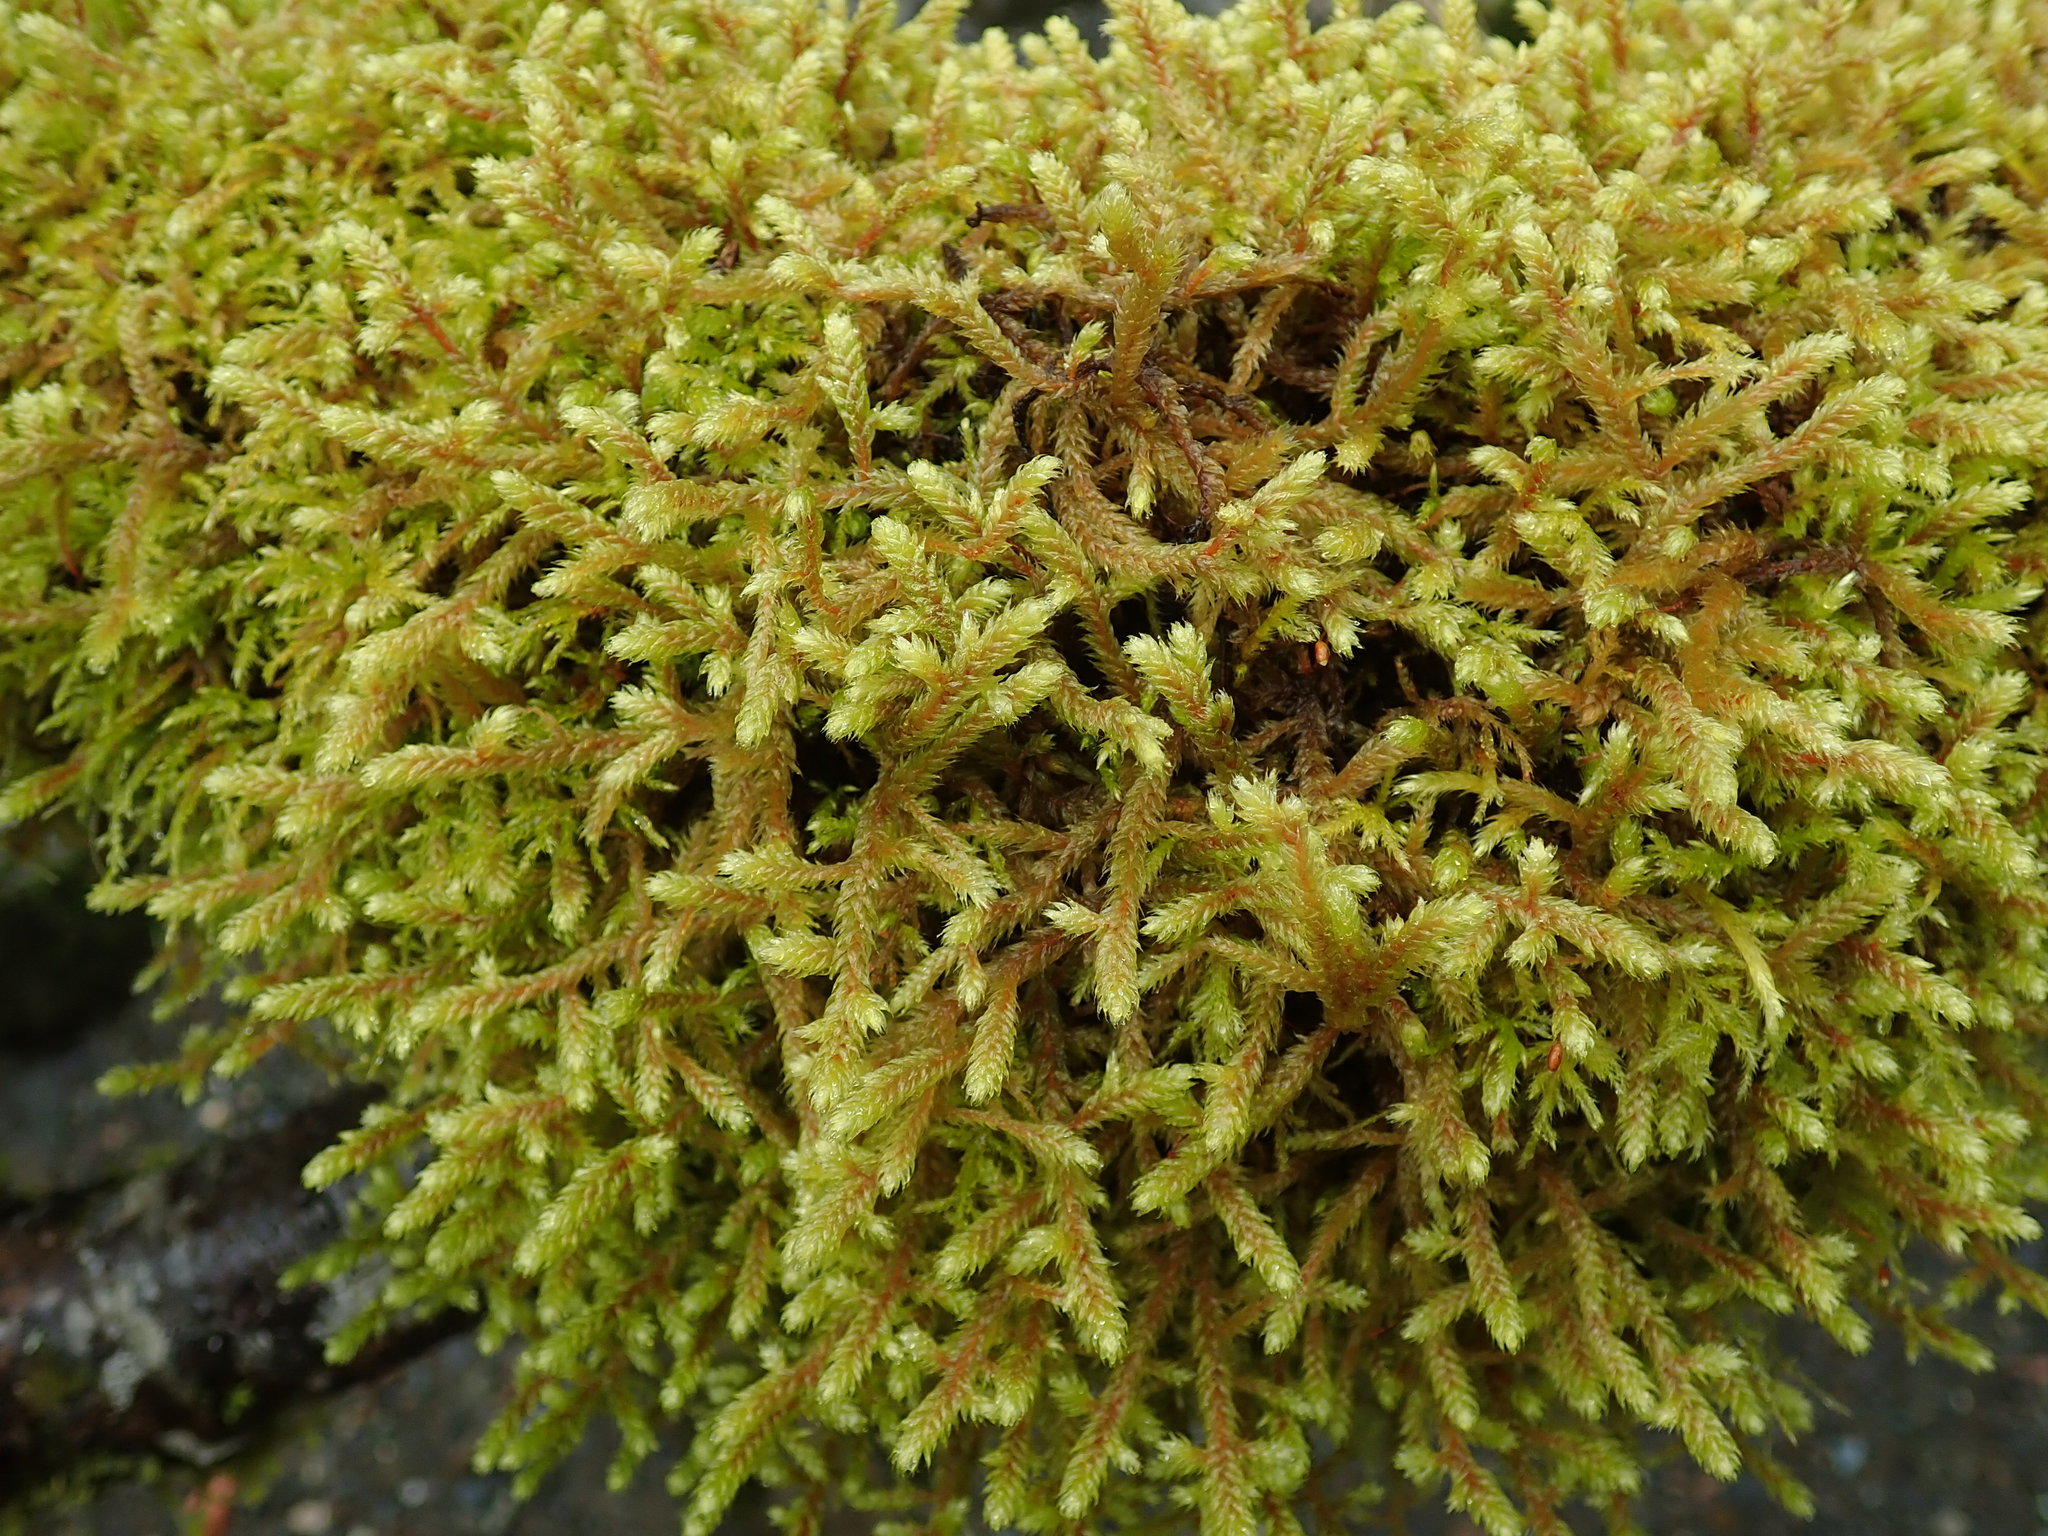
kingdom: Plantae
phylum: Bryophyta
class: Bryopsida
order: Hypnales
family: Antitrichiaceae
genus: Antitrichia
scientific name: Antitrichia curtipendula
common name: Pendulous wing-moss
